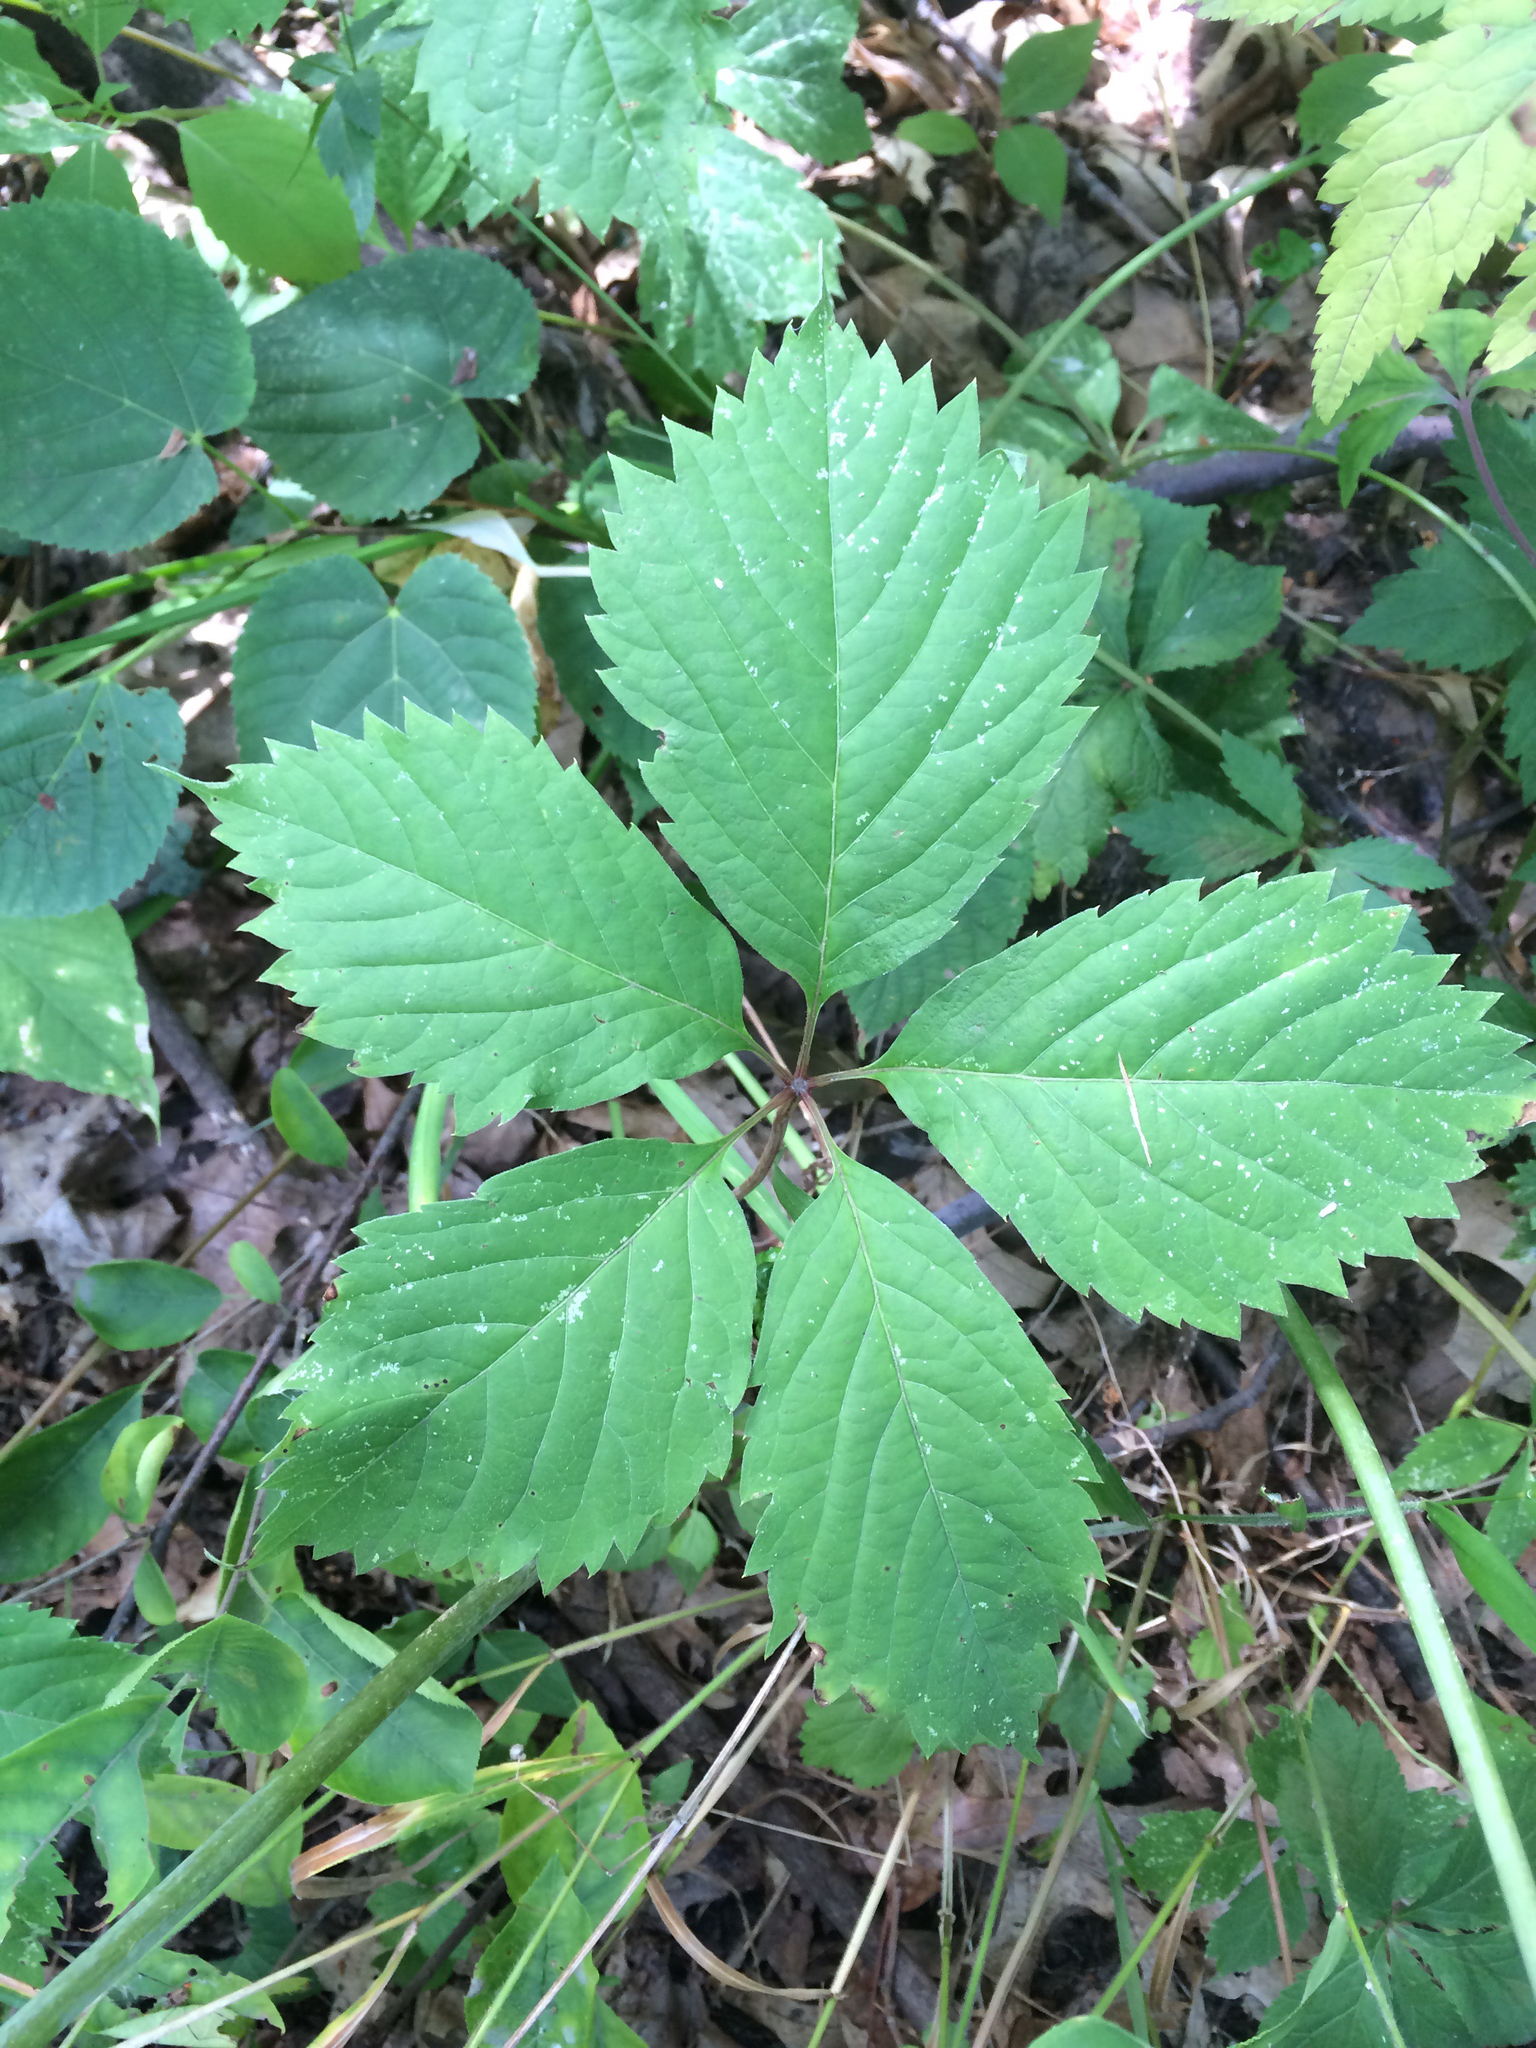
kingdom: Plantae
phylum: Tracheophyta
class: Magnoliopsida
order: Vitales
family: Vitaceae
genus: Parthenocissus
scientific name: Parthenocissus quinquefolia
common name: Virginia-creeper
